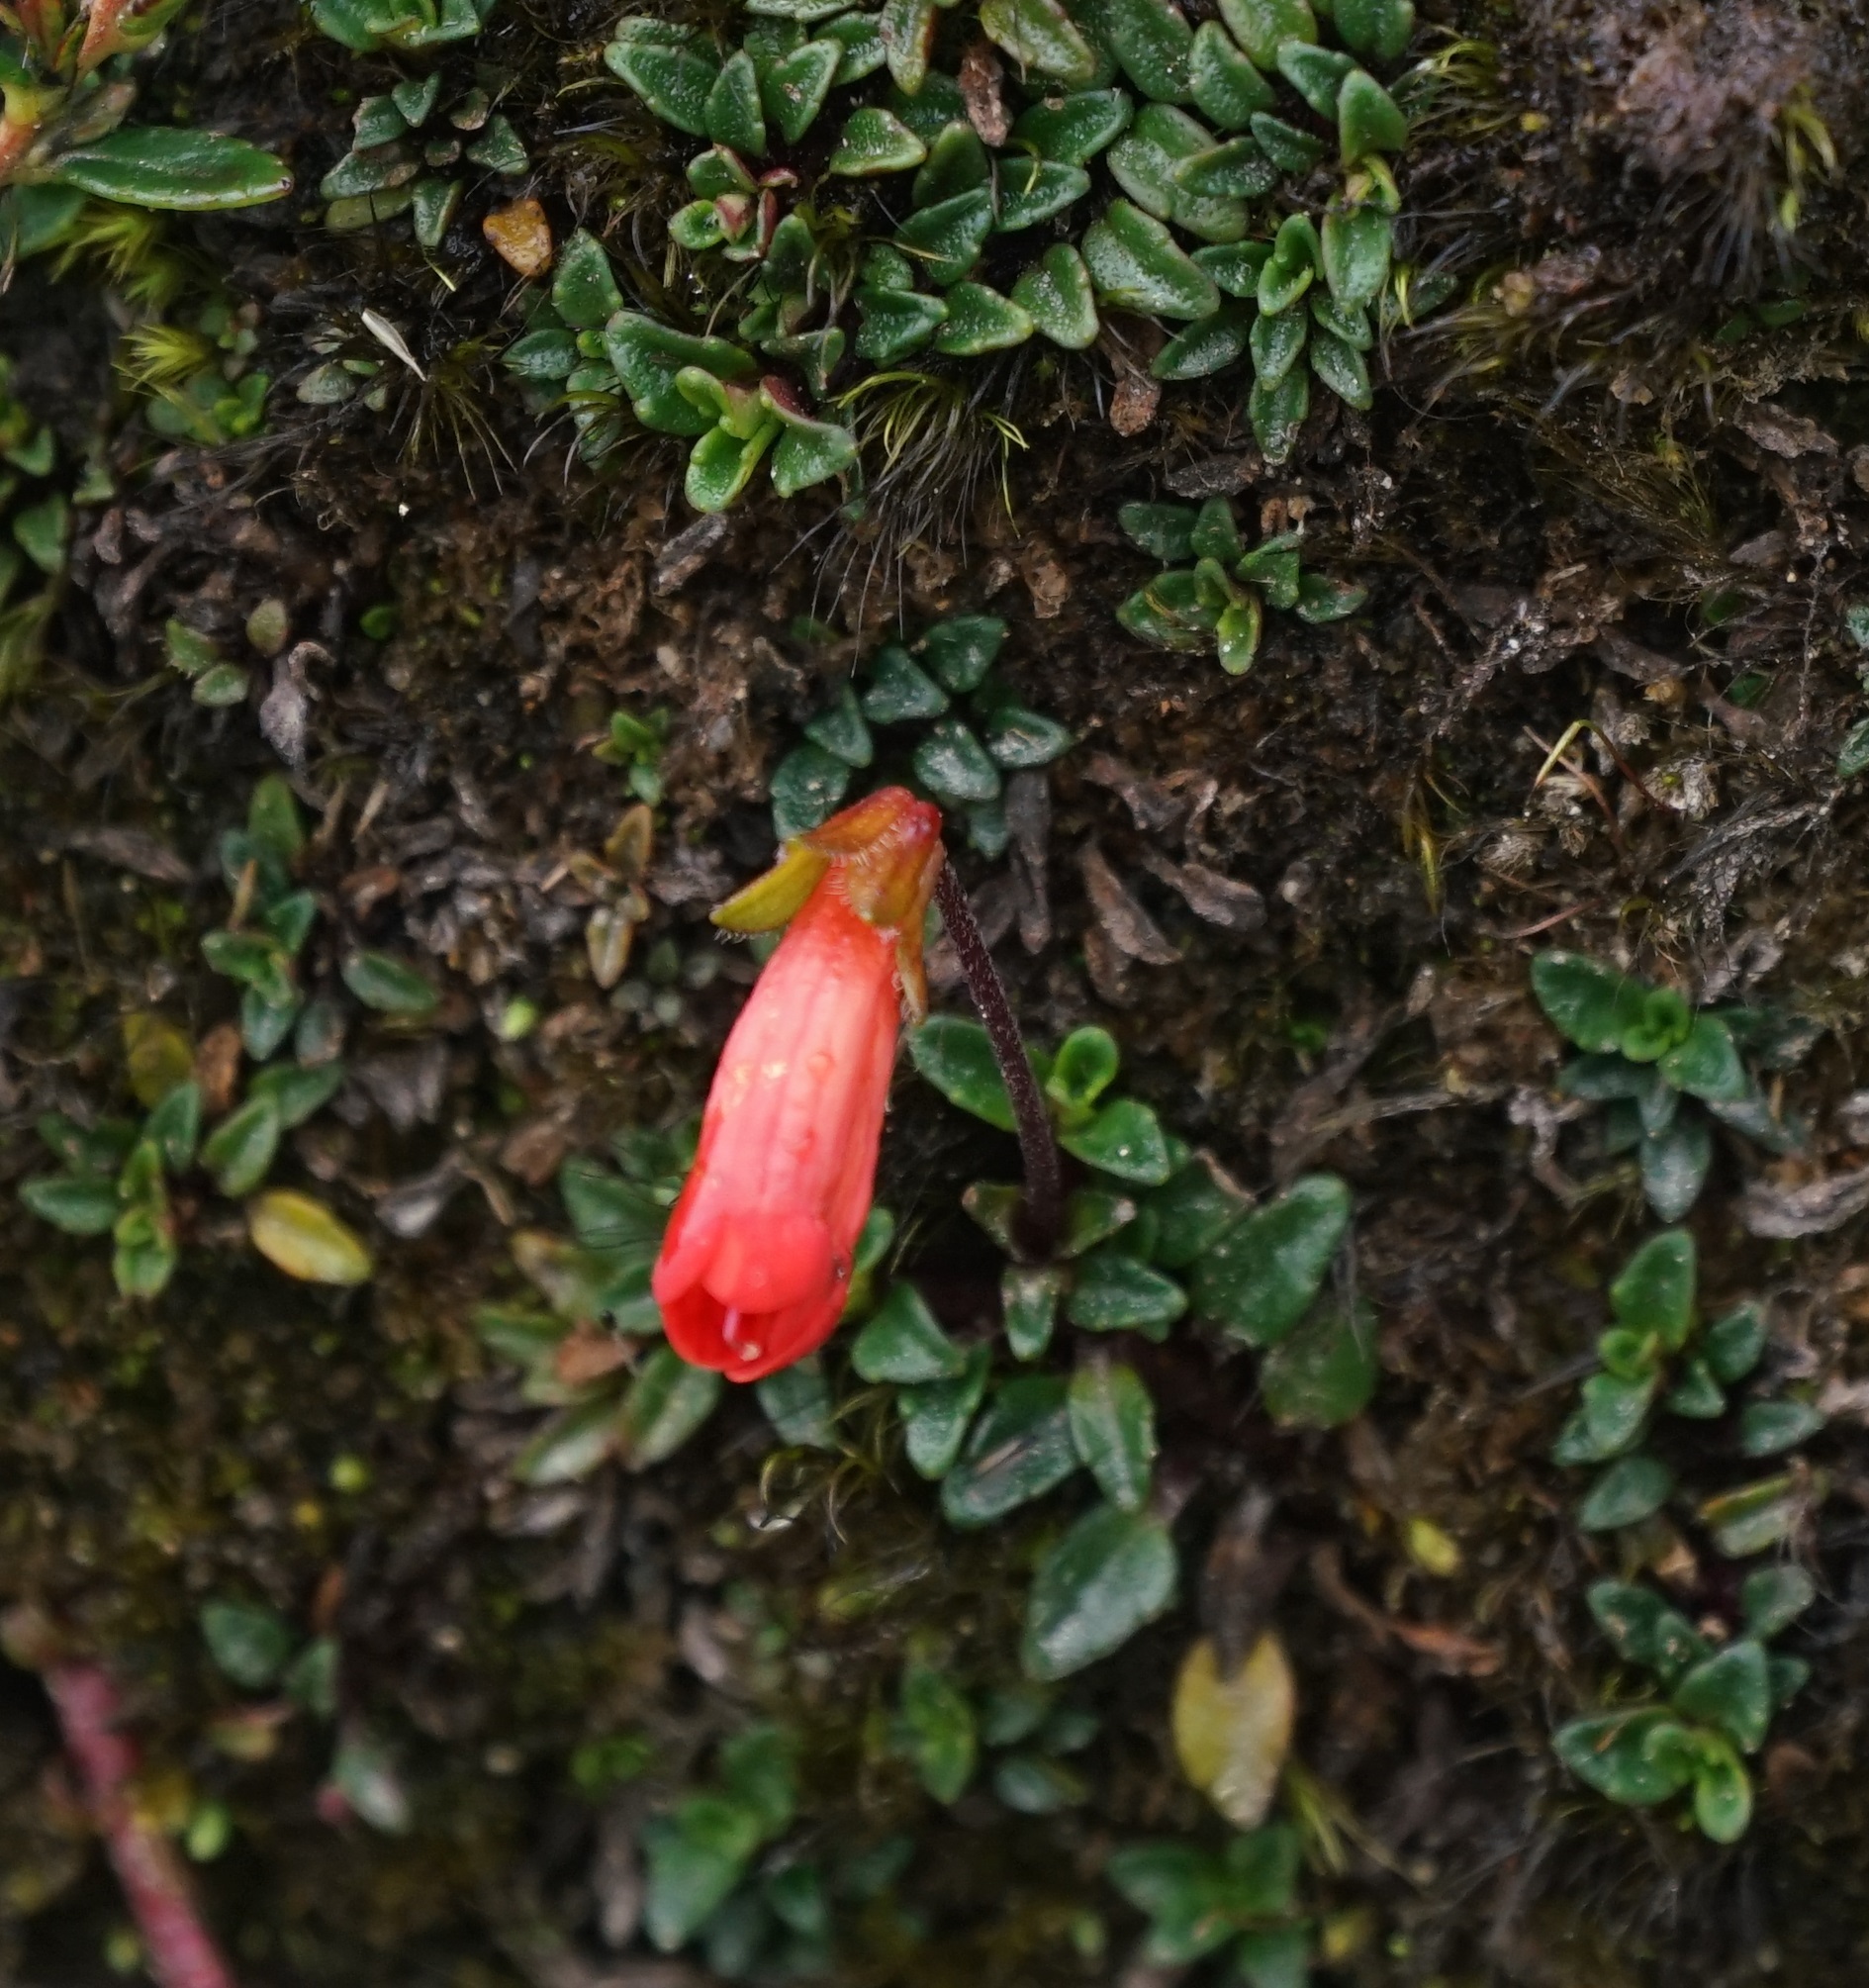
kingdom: Plantae
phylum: Tracheophyta
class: Magnoliopsida
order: Lamiales
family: Plantaginaceae
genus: Ourisia
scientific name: Ourisia chamaedrifolia
